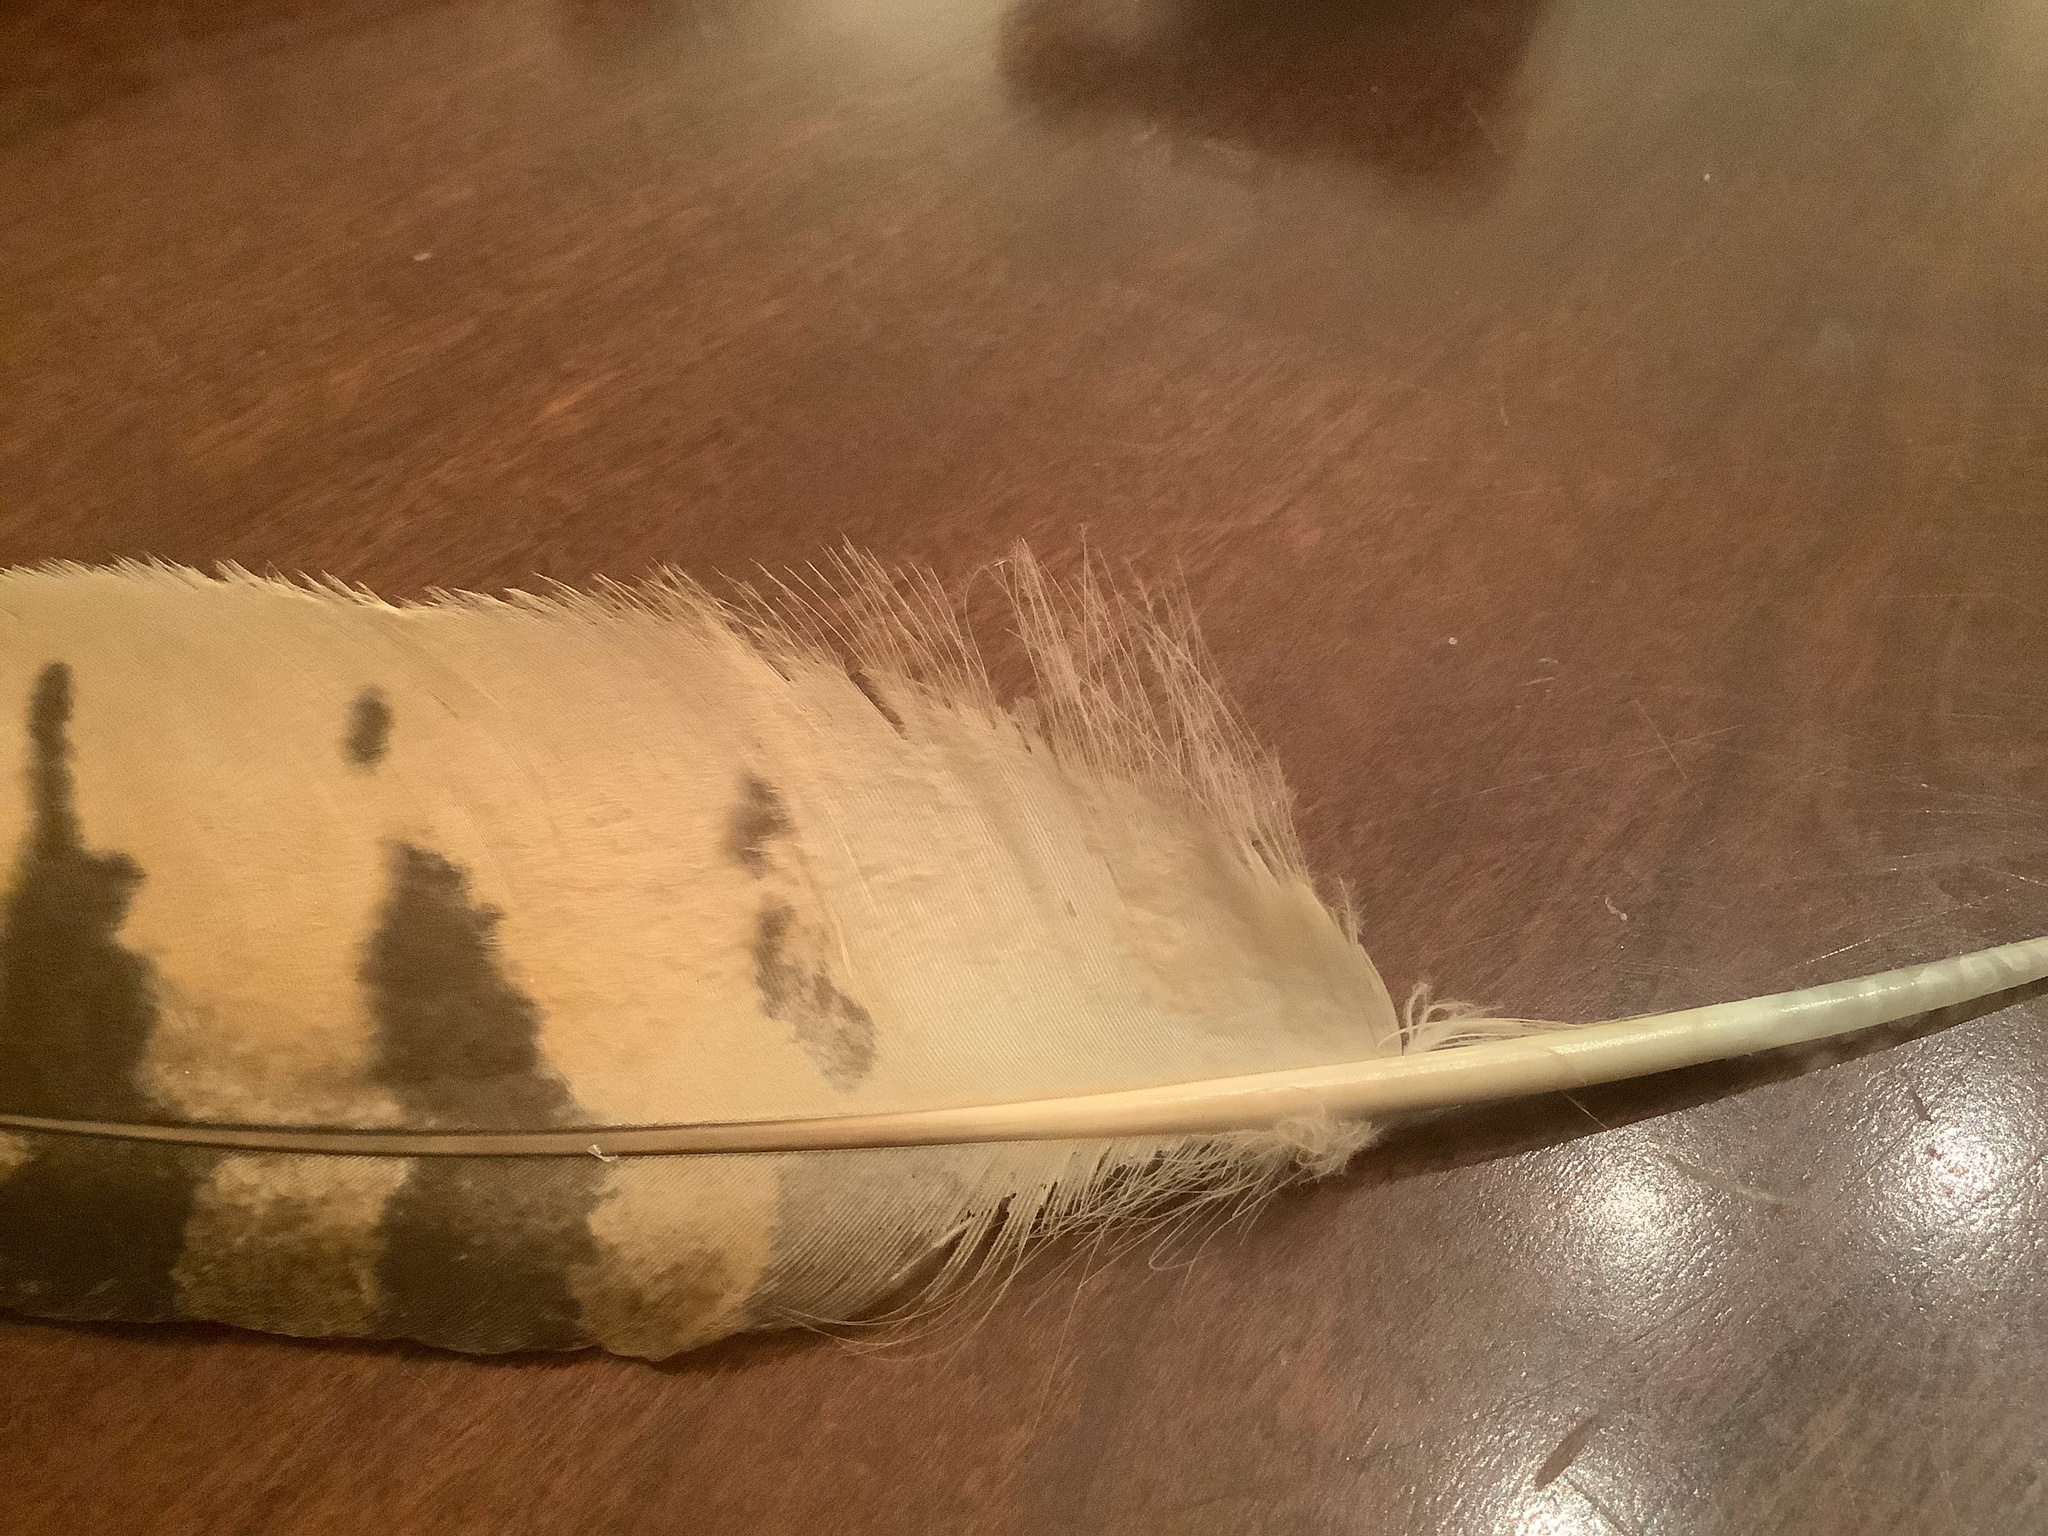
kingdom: Animalia
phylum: Chordata
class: Aves
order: Strigiformes
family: Strigidae
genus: Bubo
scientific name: Bubo virginianus
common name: Great horned owl
